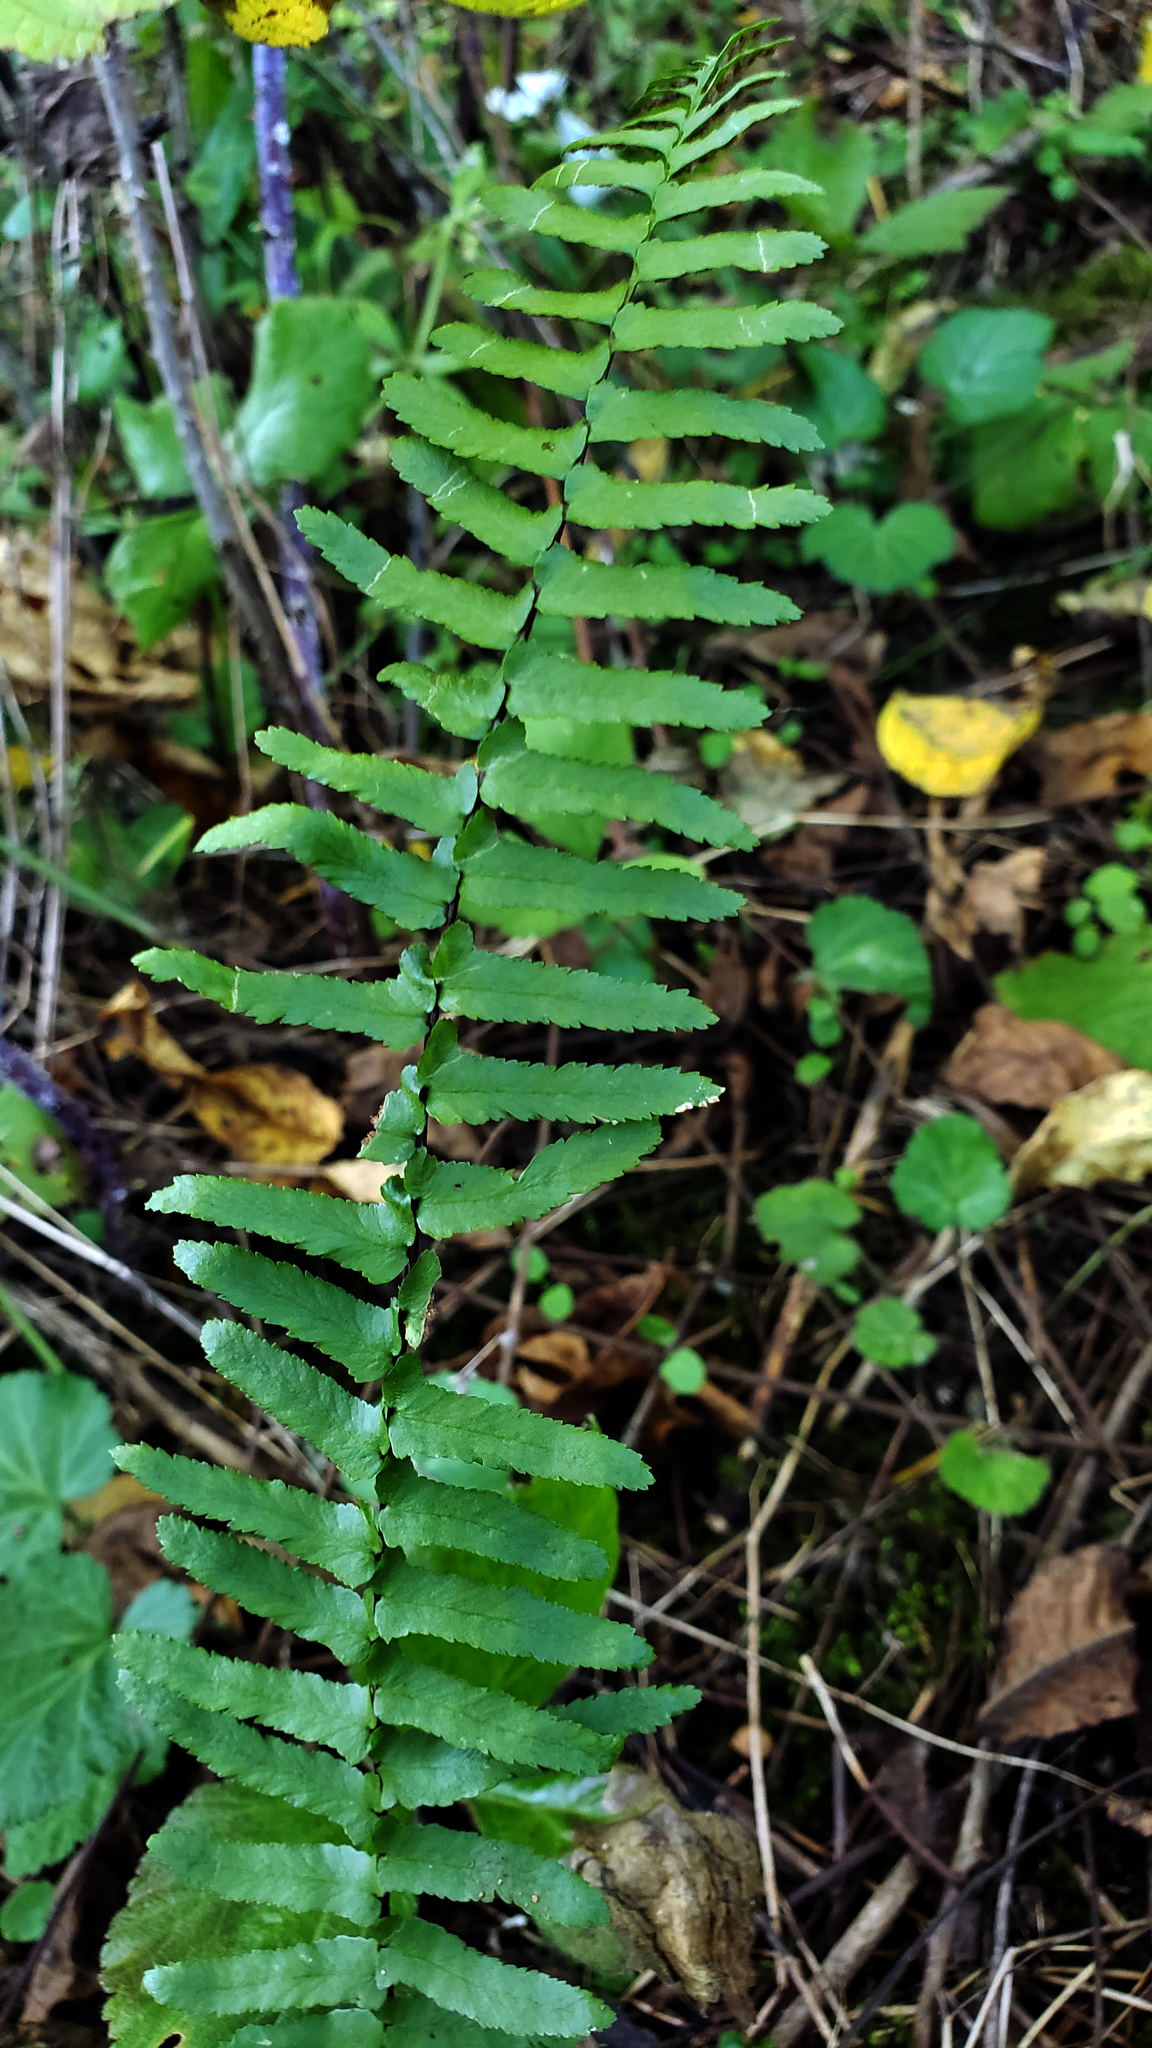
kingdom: Plantae
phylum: Tracheophyta
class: Polypodiopsida
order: Polypodiales
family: Aspleniaceae
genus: Asplenium
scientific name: Asplenium platyneuron
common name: Ebony spleenwort
